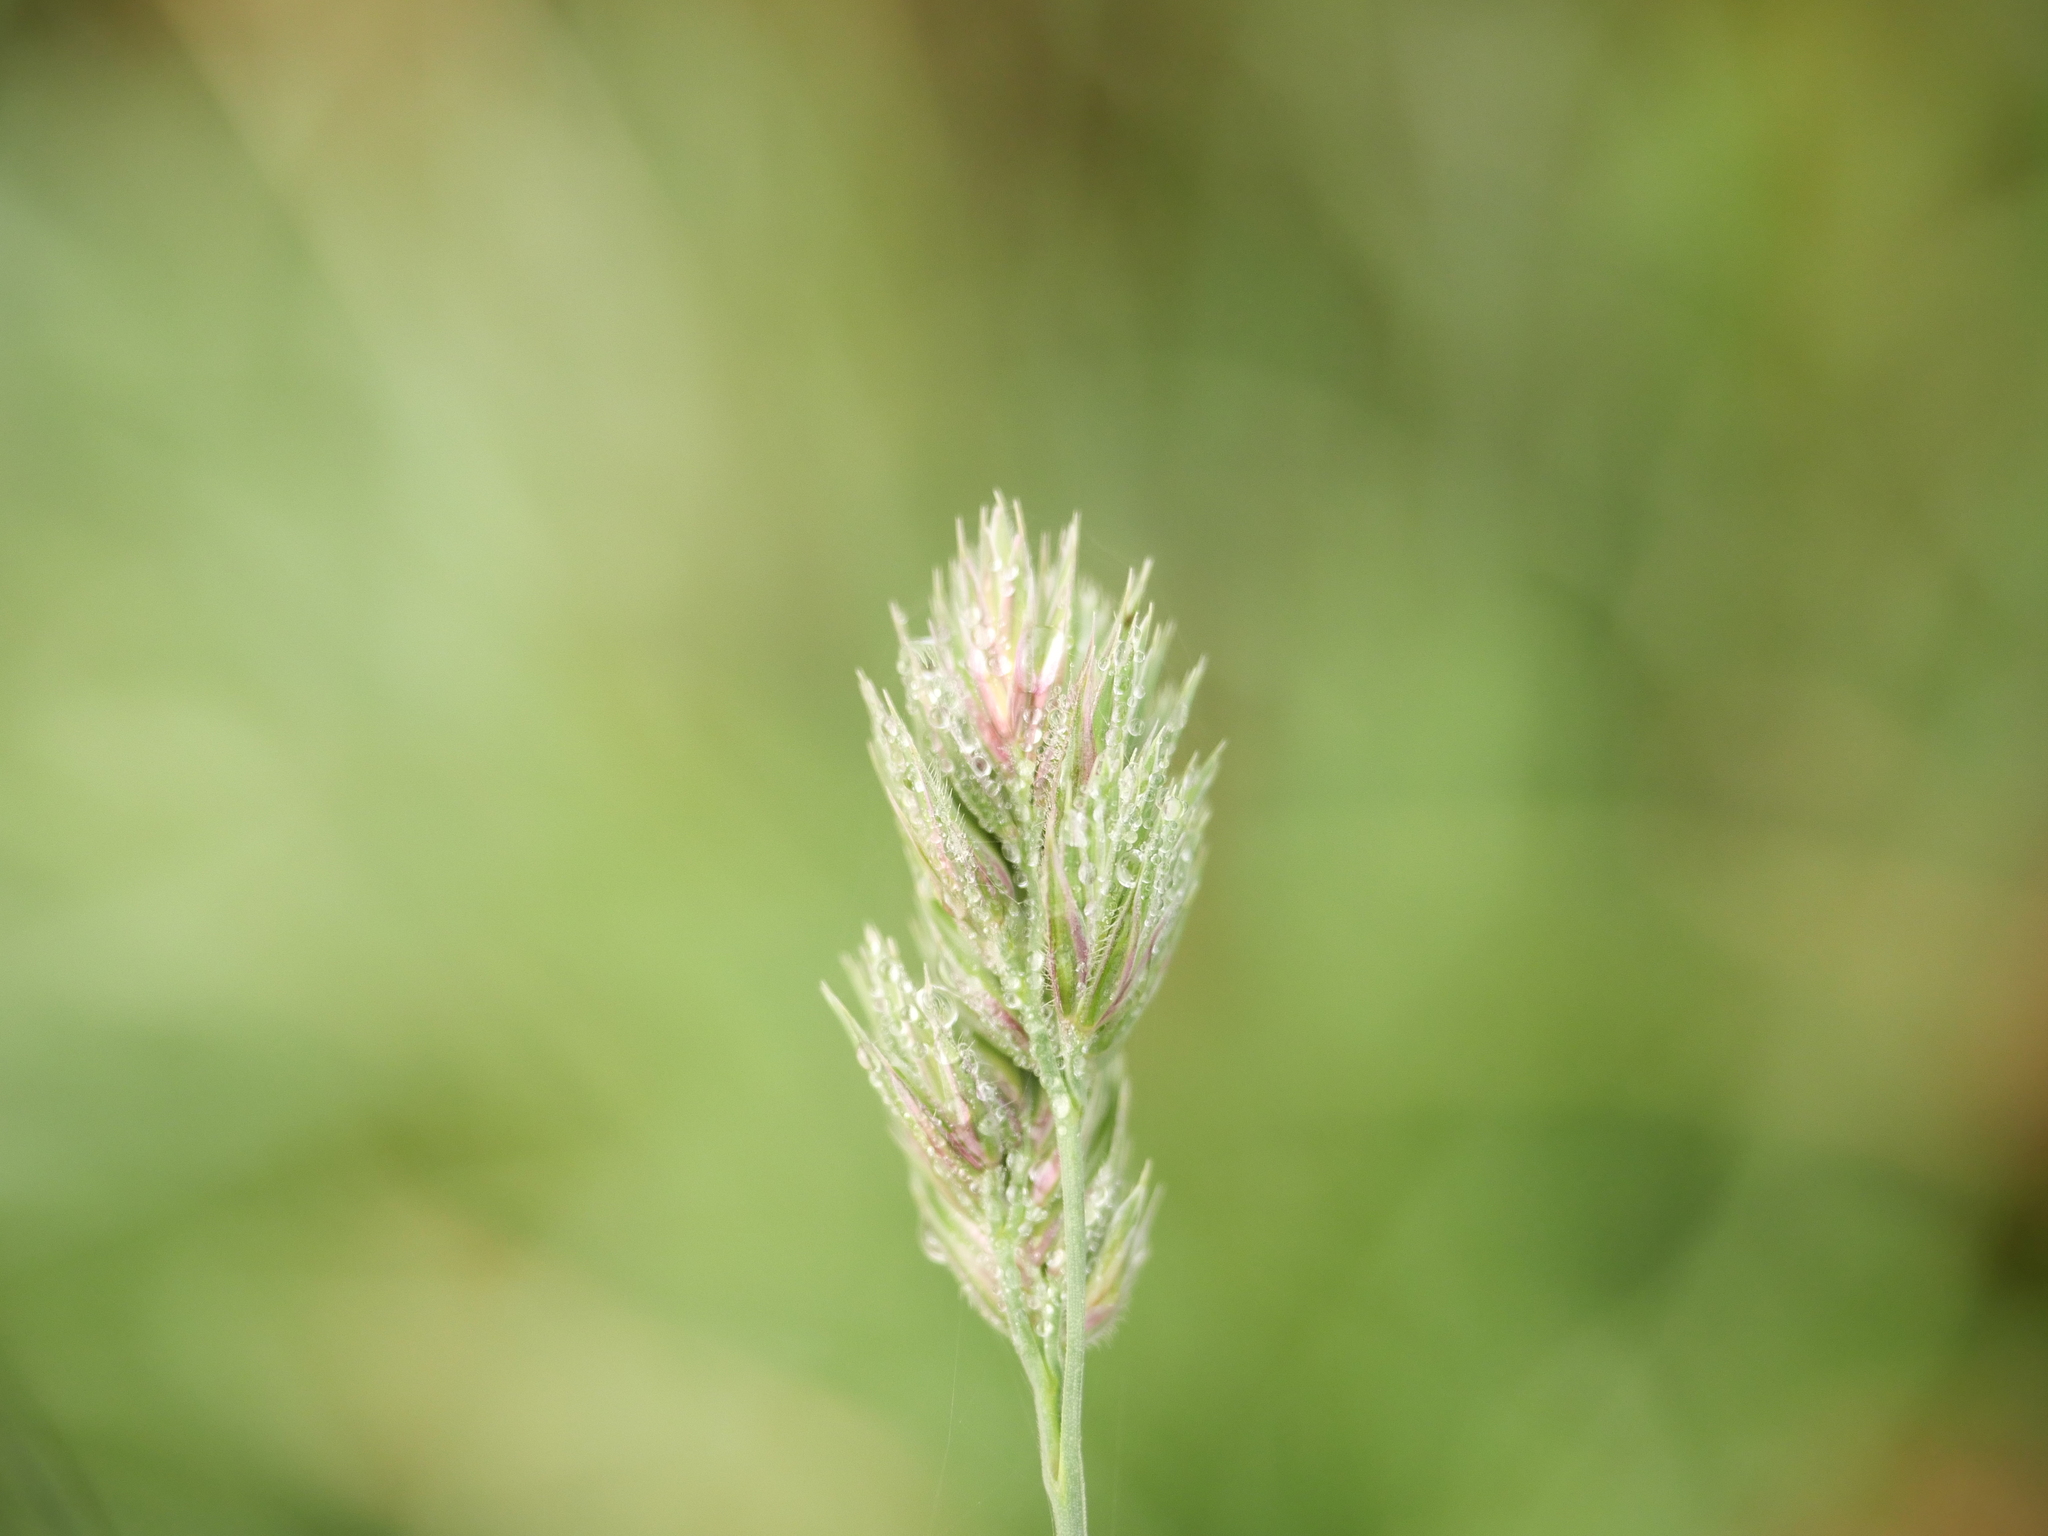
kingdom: Plantae
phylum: Tracheophyta
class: Liliopsida
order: Poales
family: Poaceae
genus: Dactylis
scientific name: Dactylis glomerata
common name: Orchardgrass
